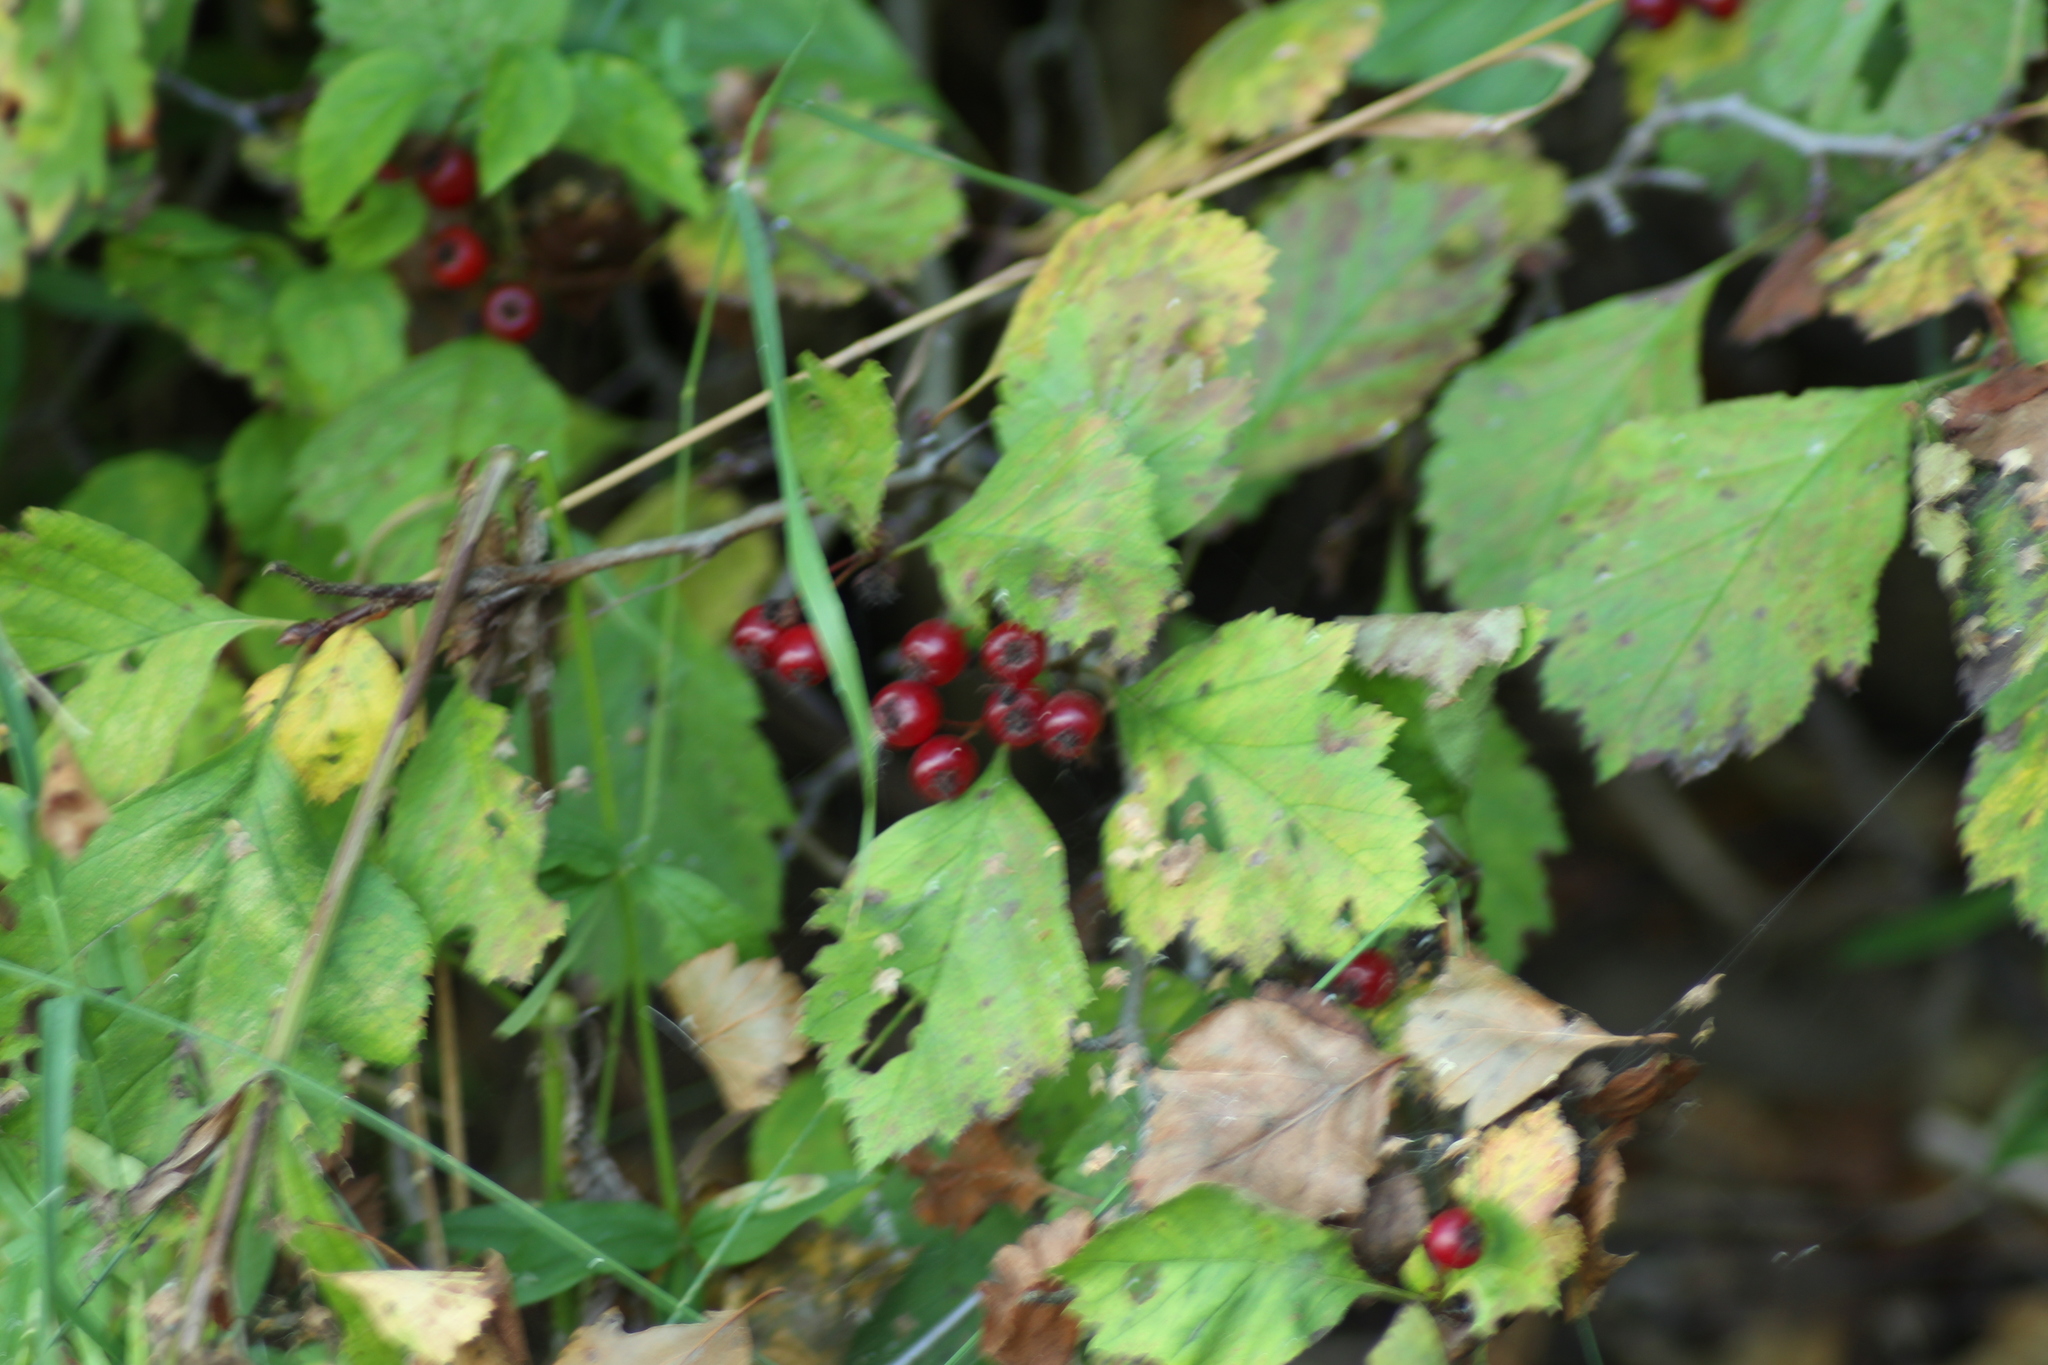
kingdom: Plantae
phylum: Tracheophyta
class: Magnoliopsida
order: Rosales
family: Rosaceae
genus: Crataegus
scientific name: Crataegus sanguinea
